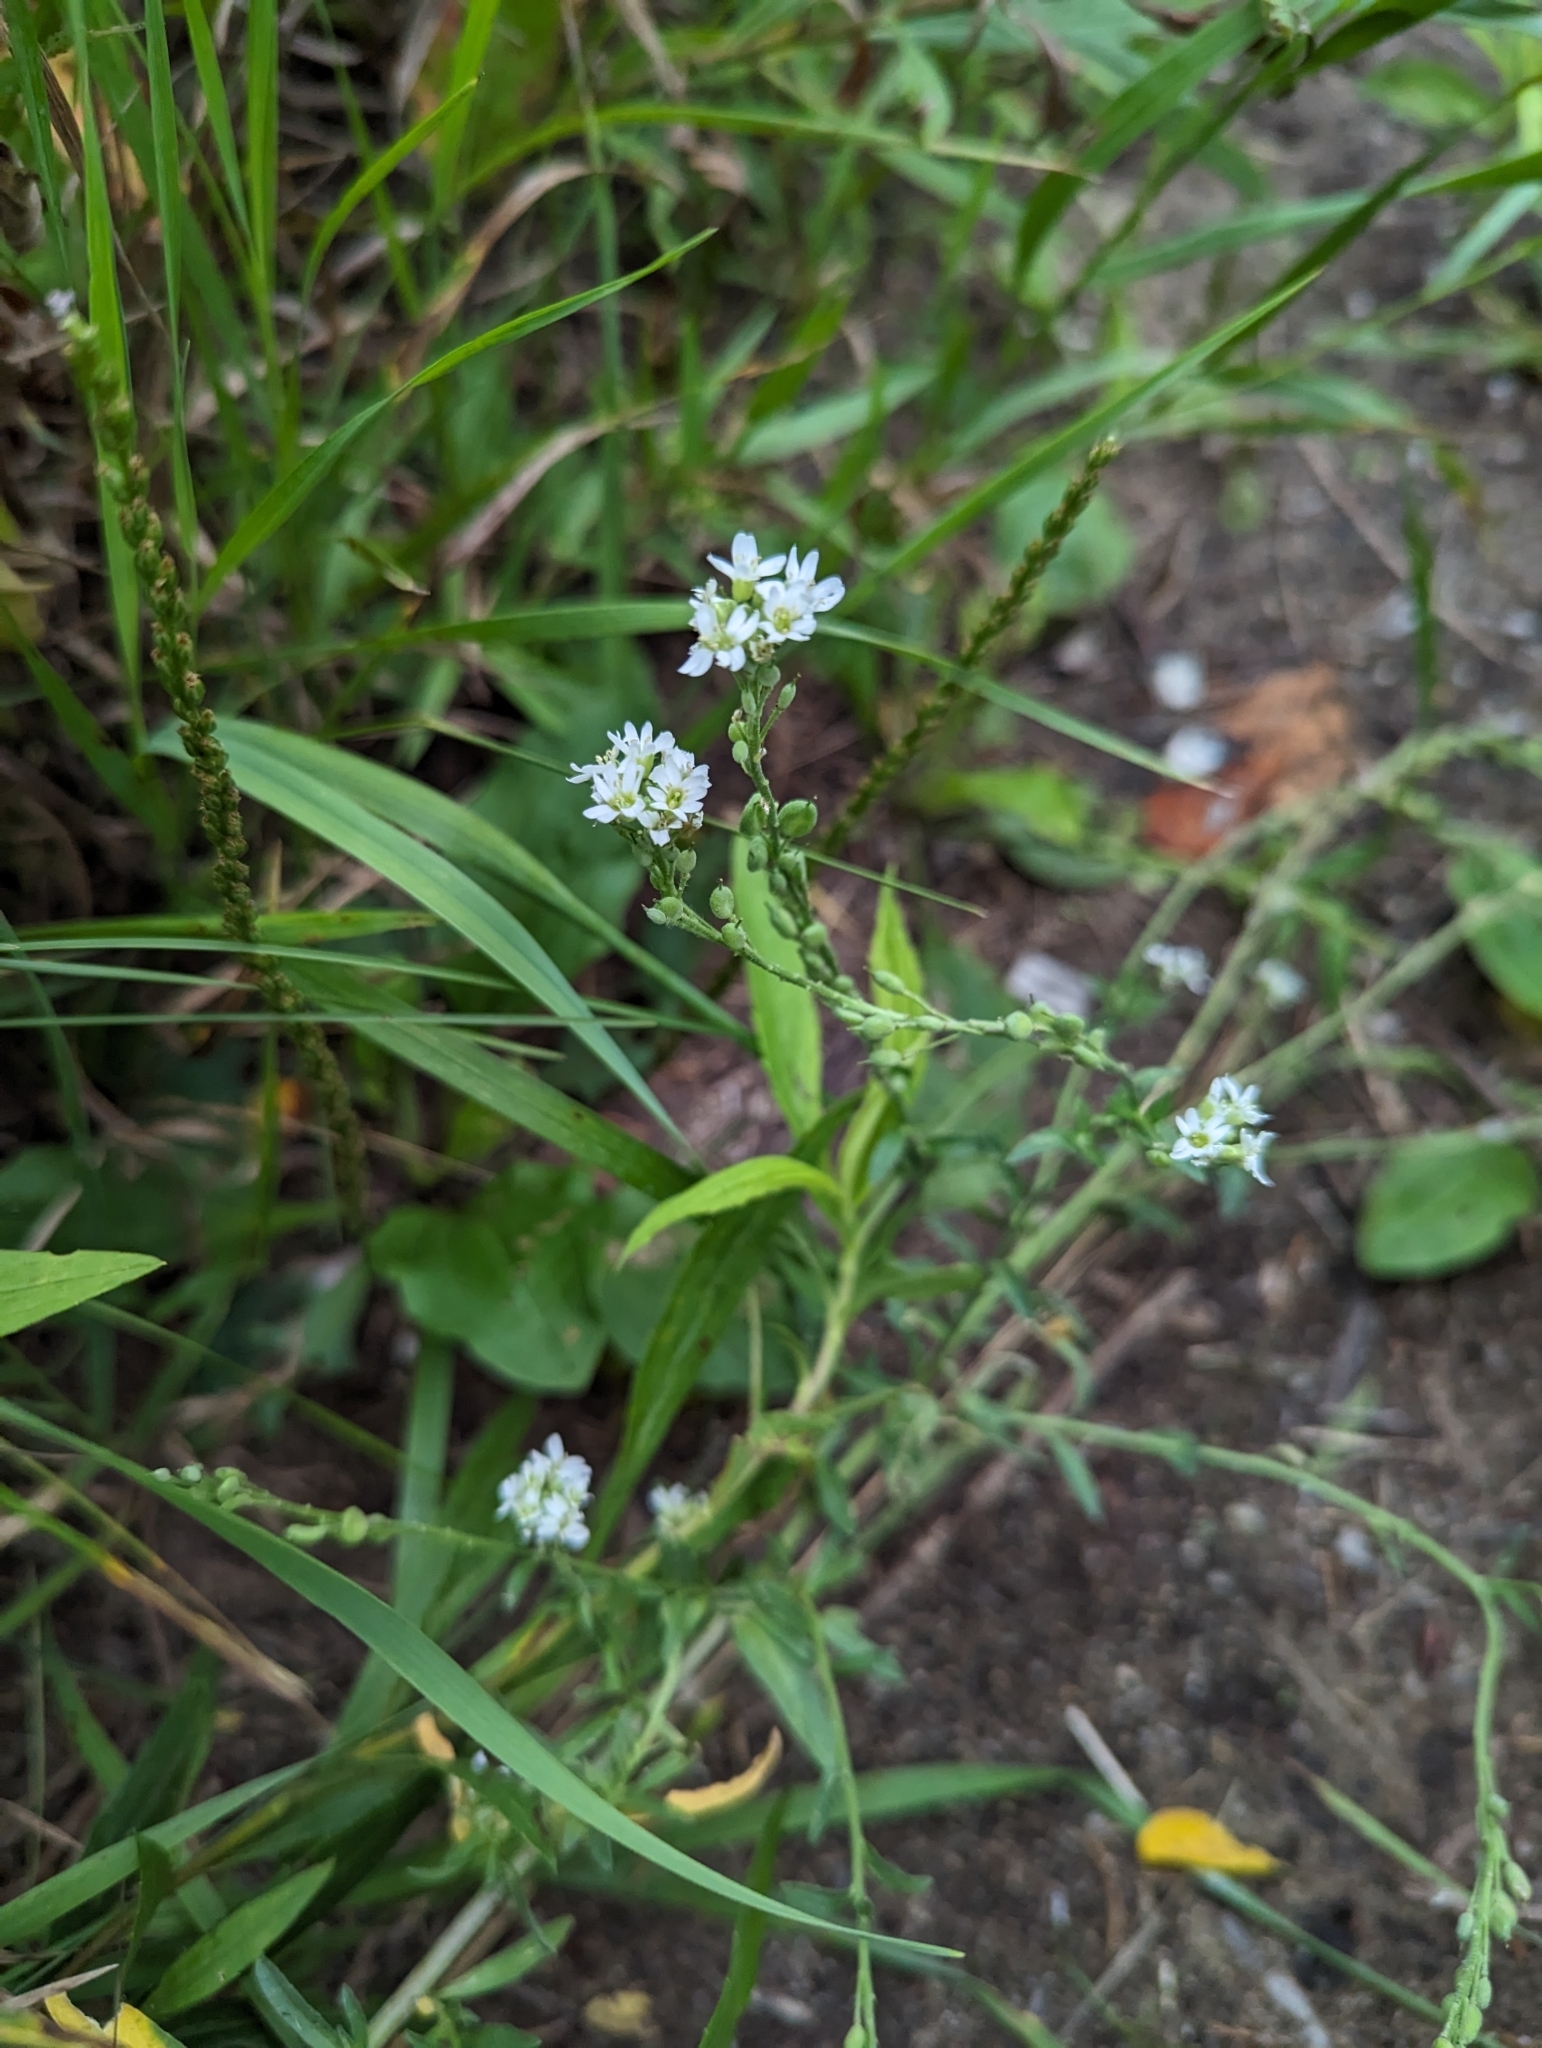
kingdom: Plantae
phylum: Tracheophyta
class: Magnoliopsida
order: Brassicales
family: Brassicaceae
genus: Berteroa
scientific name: Berteroa incana
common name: Hoary alison
